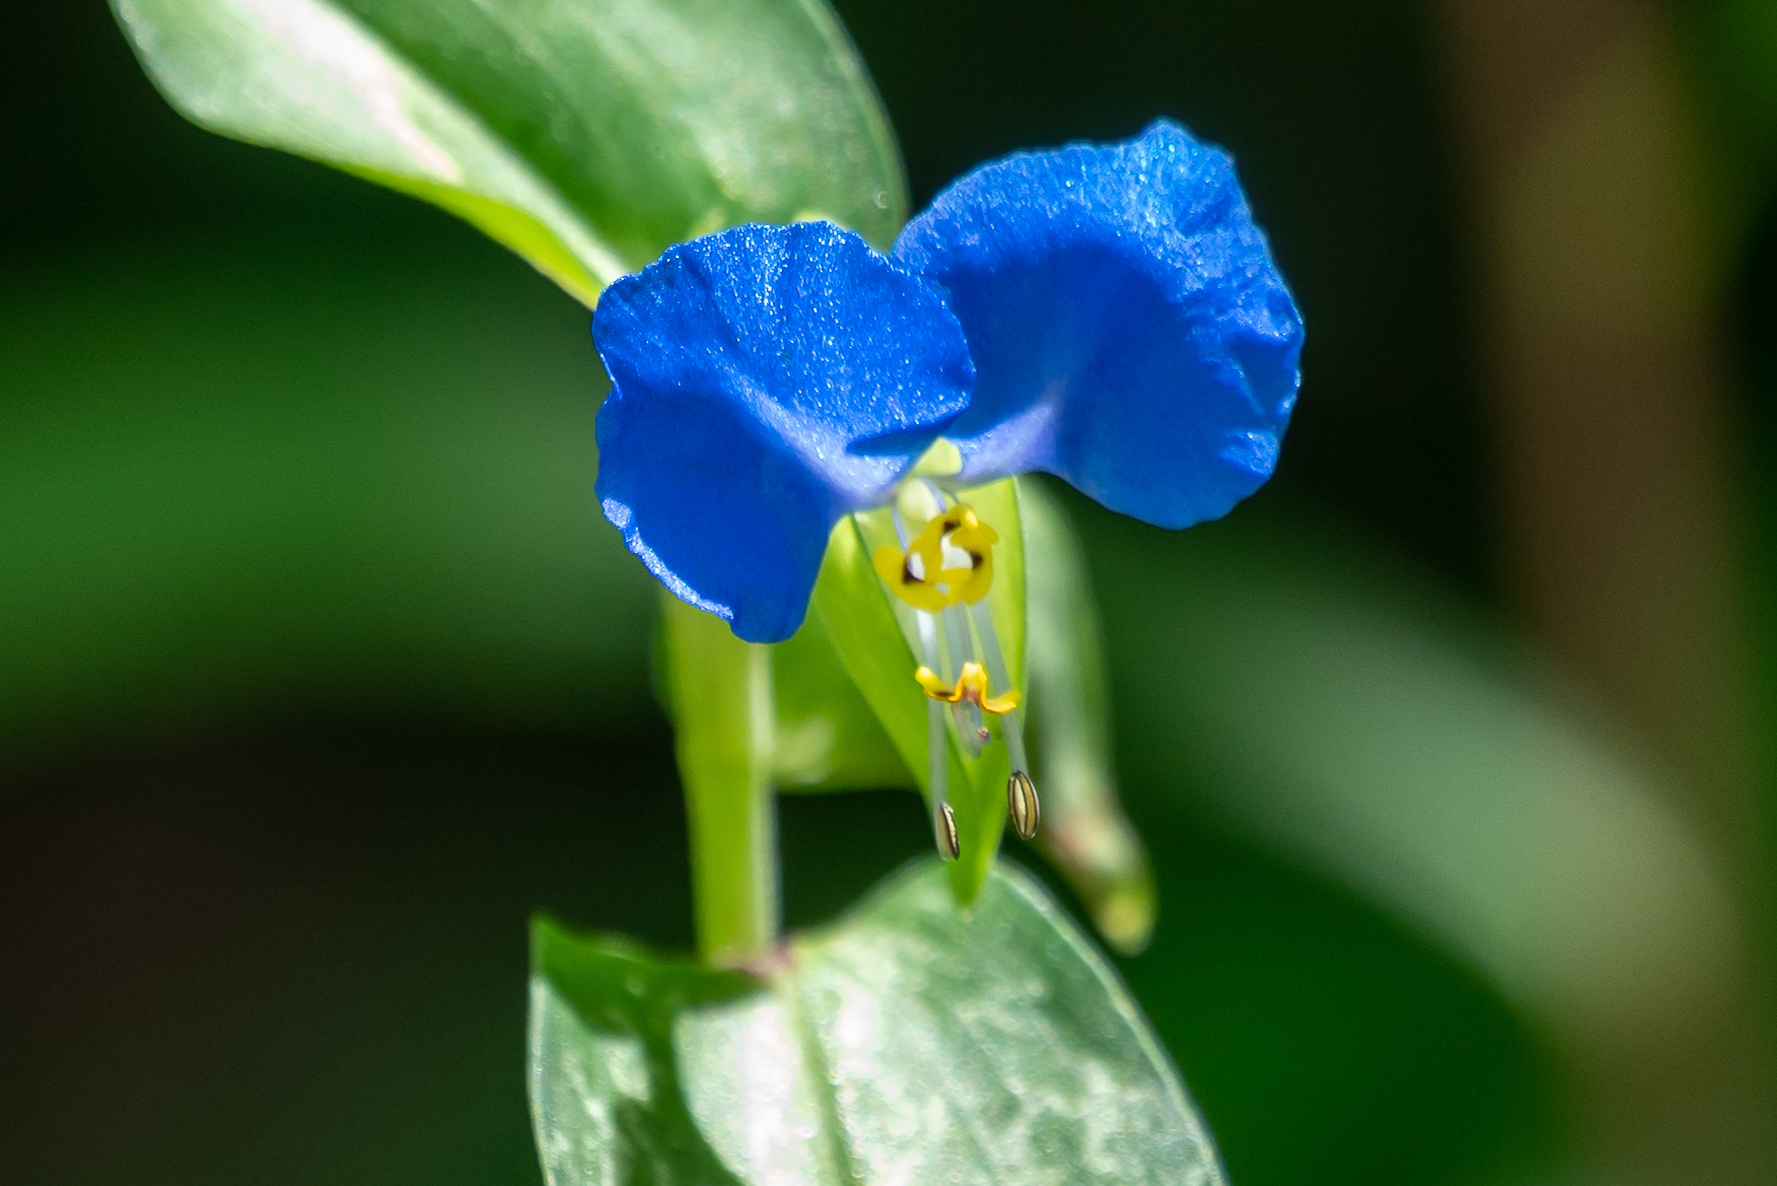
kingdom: Plantae
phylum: Tracheophyta
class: Liliopsida
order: Commelinales
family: Commelinaceae
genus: Commelina
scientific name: Commelina communis
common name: Asiatic dayflower
